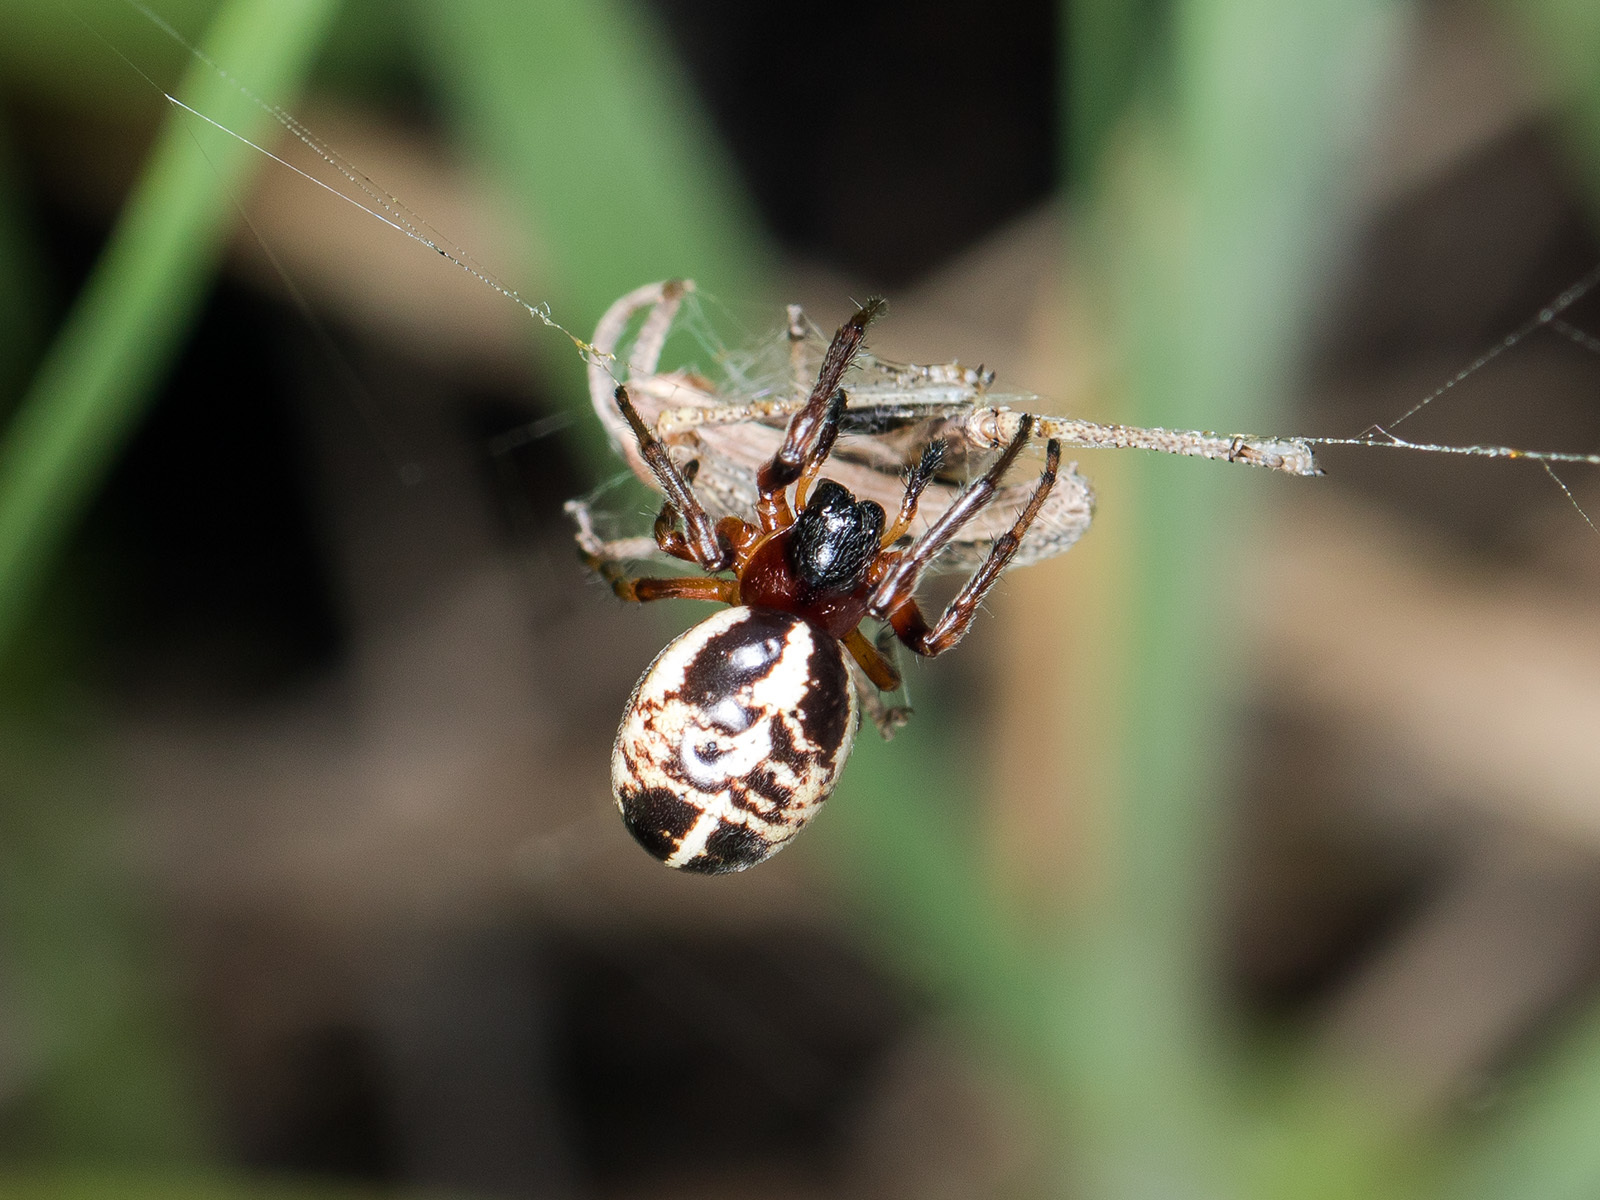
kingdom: Animalia
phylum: Arthropoda
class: Arachnida
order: Araneae
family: Araneidae
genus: Singa
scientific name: Singa hamata
